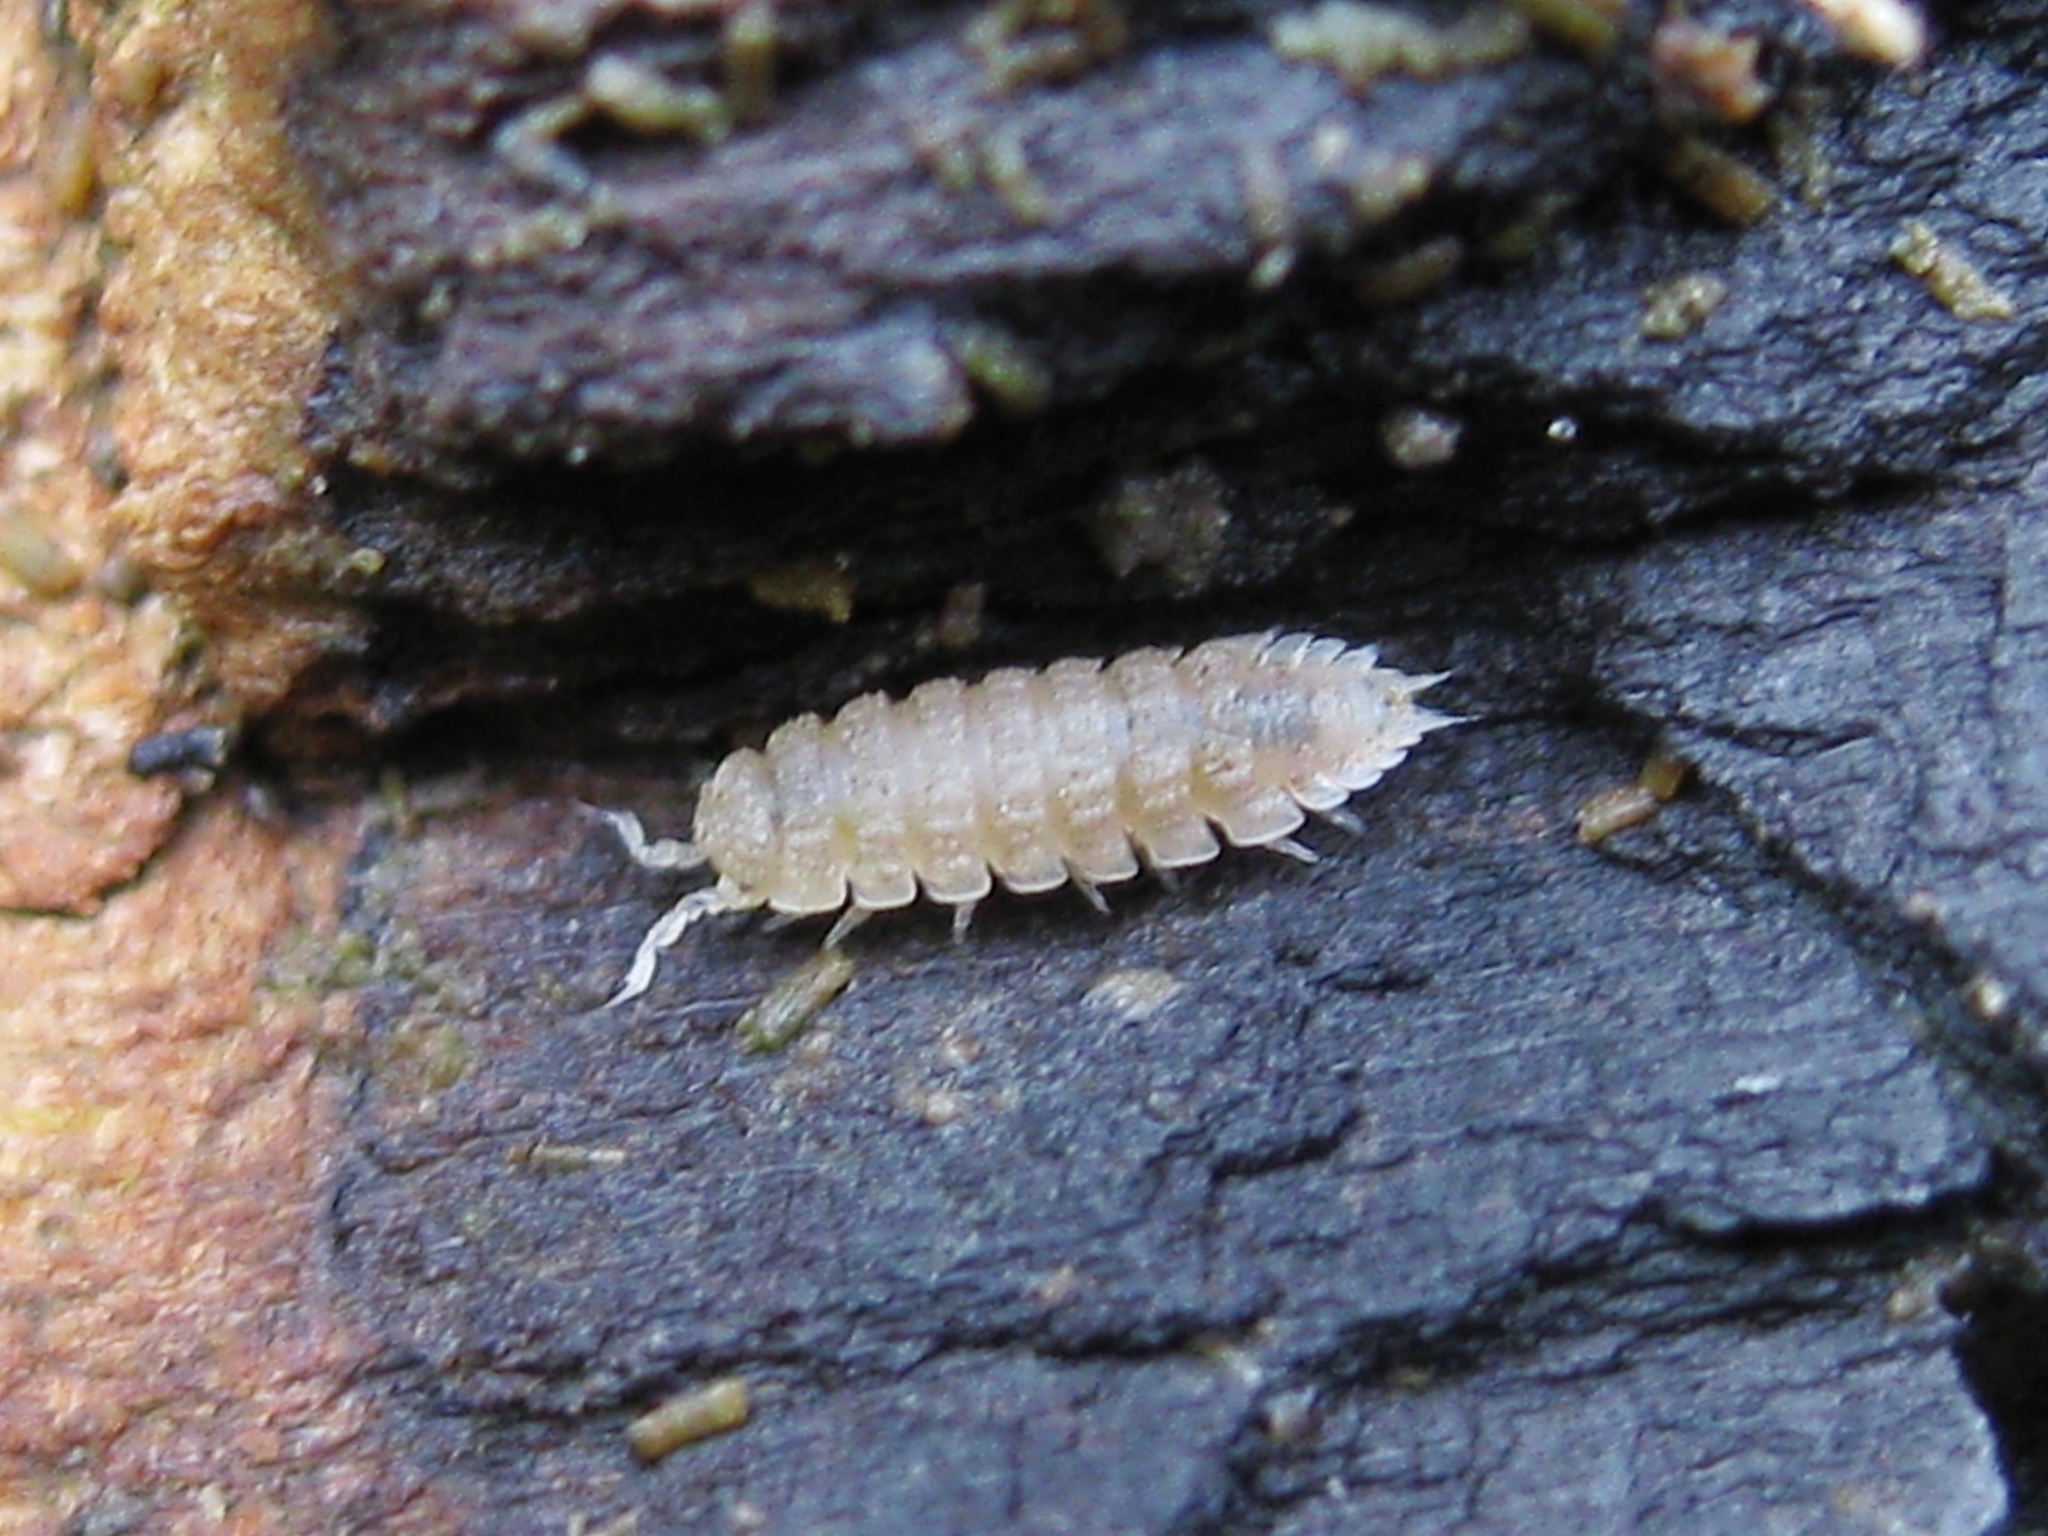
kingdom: Animalia
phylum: Arthropoda
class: Malacostraca
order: Isopoda
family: Trichoniscidae
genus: Haplophthalmus
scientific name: Haplophthalmus
